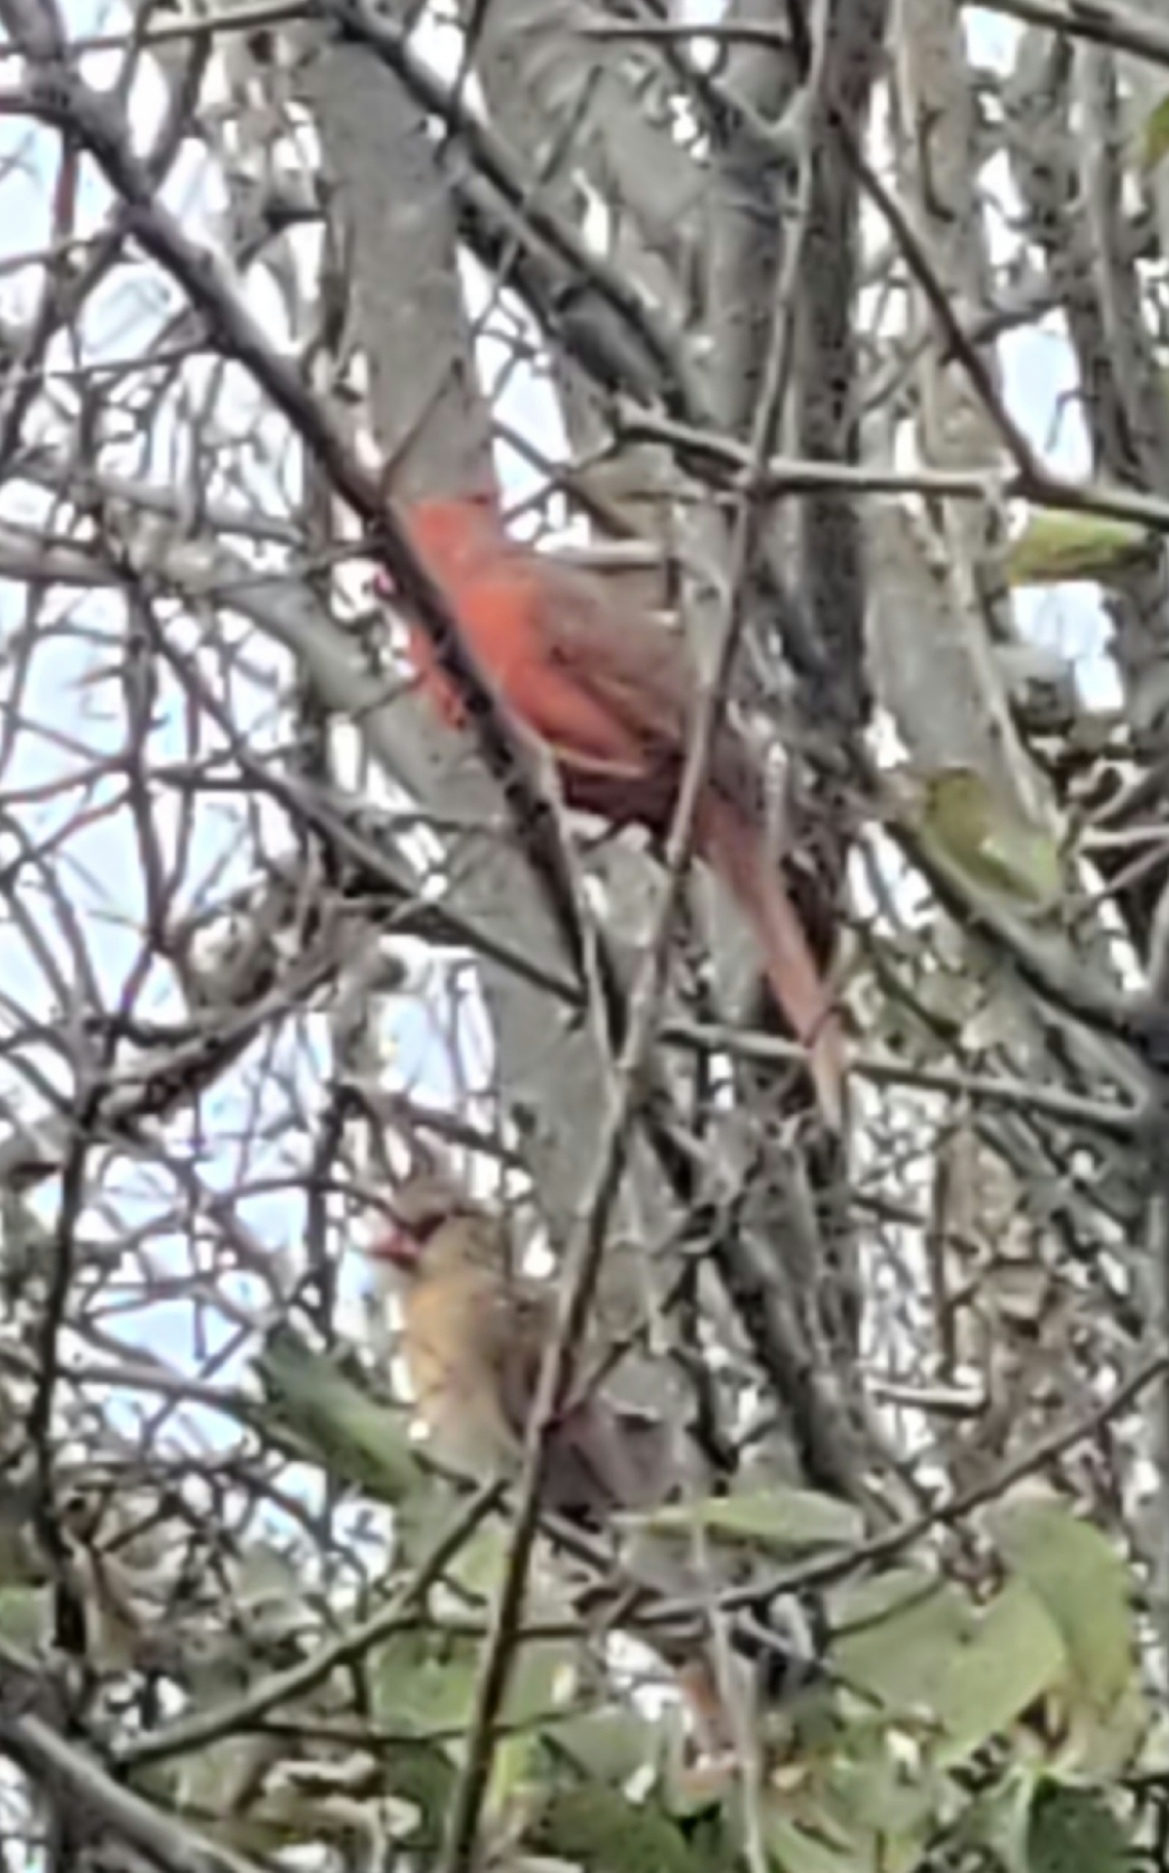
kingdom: Animalia
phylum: Chordata
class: Aves
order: Passeriformes
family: Cardinalidae
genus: Cardinalis
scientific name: Cardinalis cardinalis
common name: Northern cardinal
